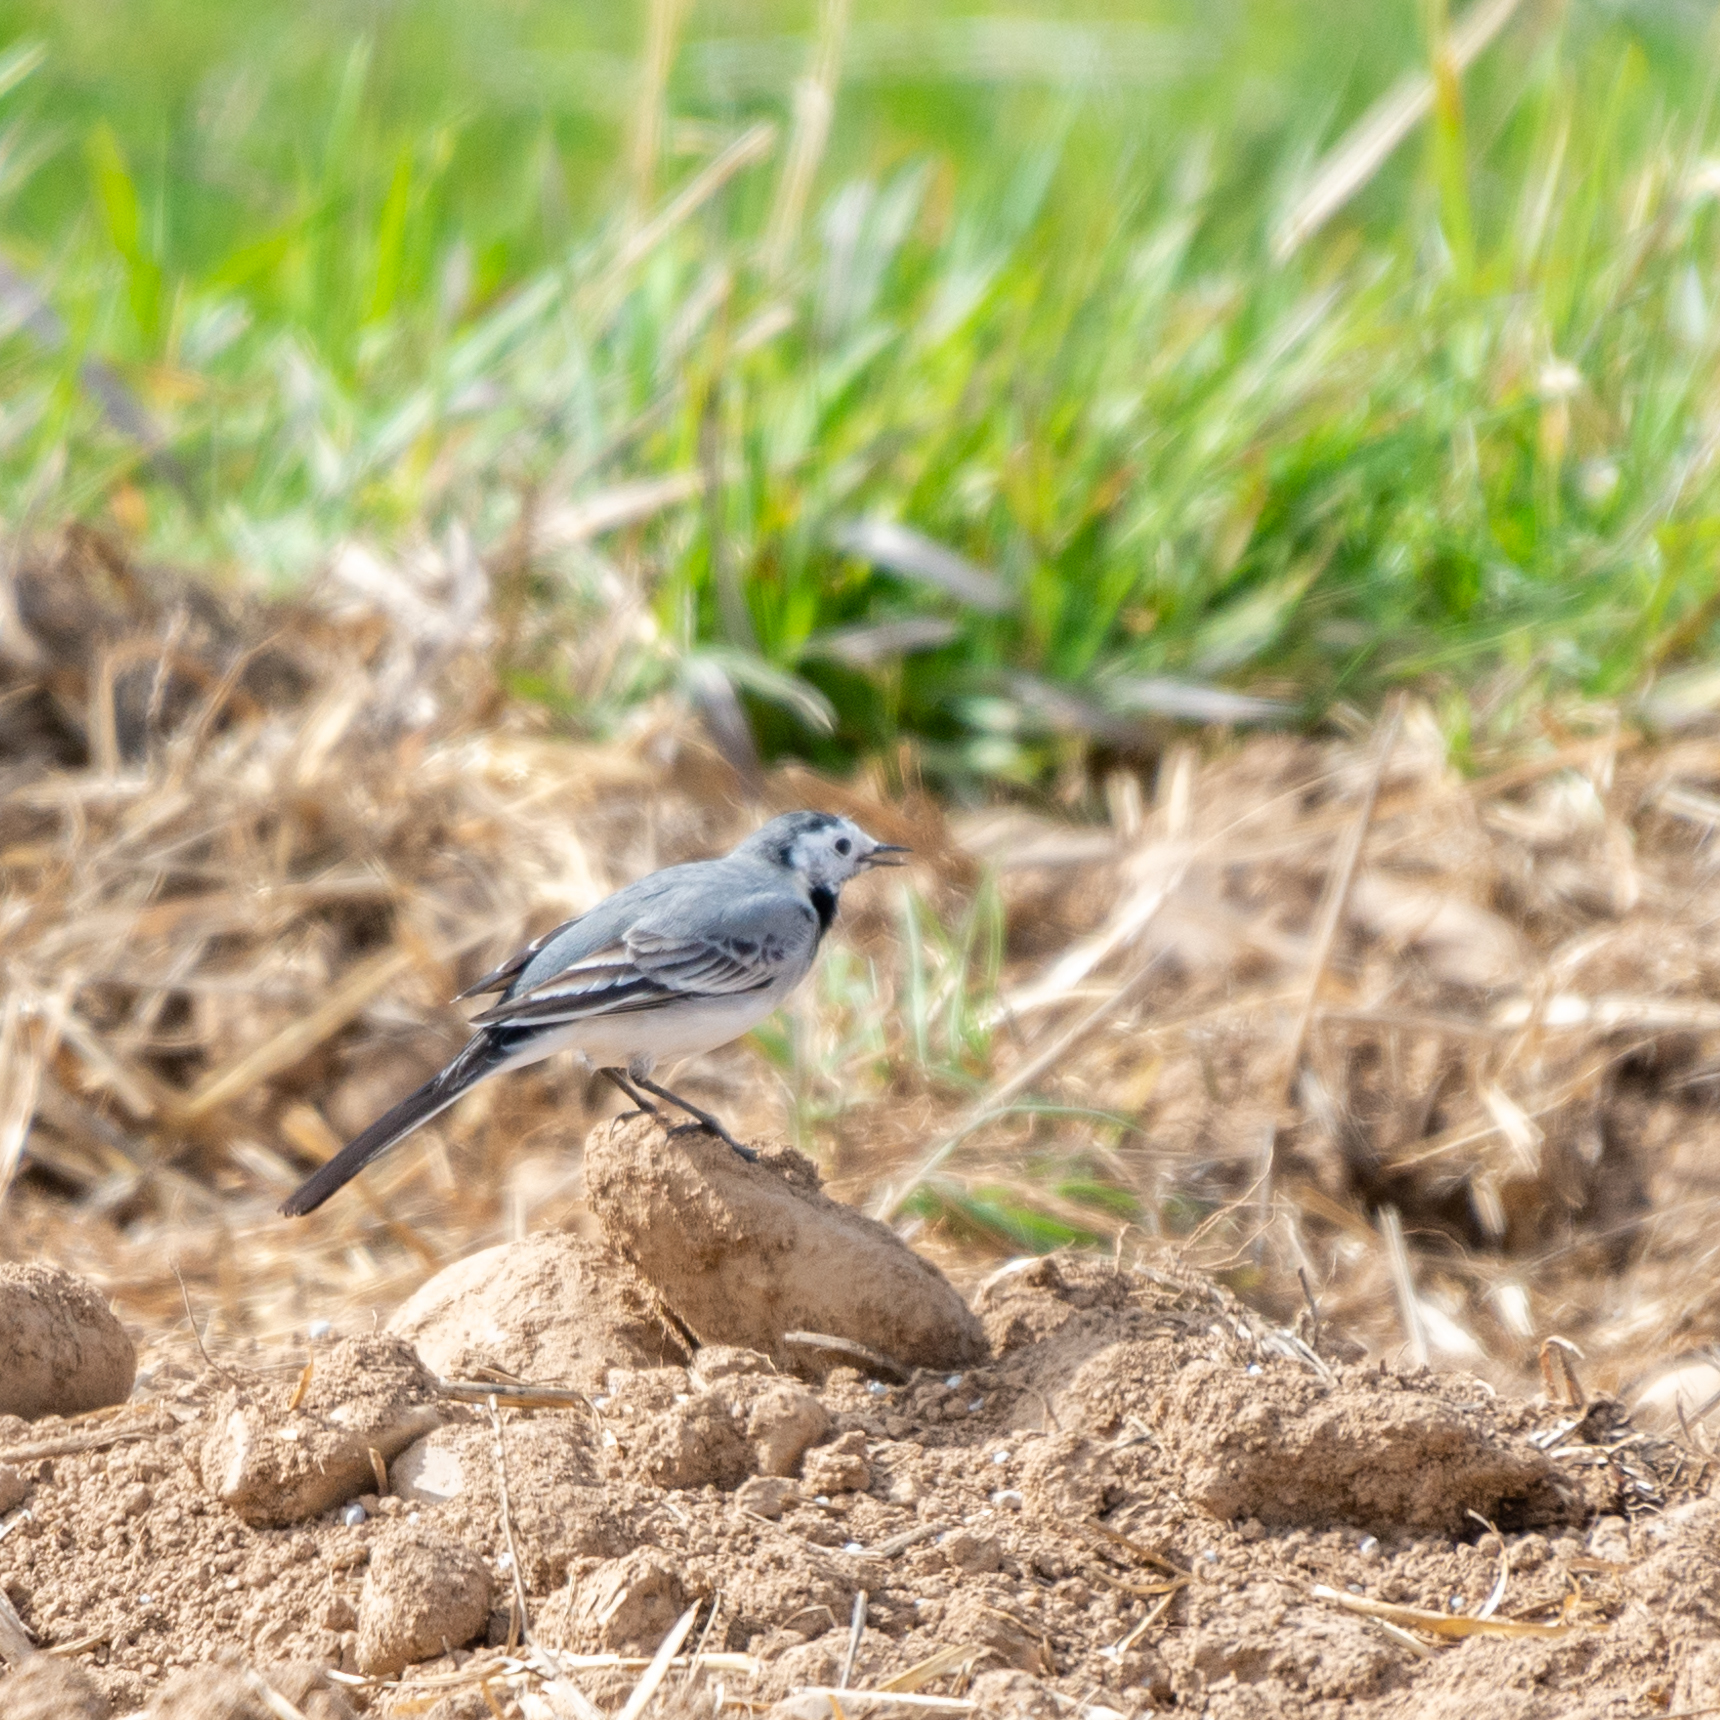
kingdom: Animalia
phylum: Chordata
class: Aves
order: Passeriformes
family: Motacillidae
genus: Motacilla
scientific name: Motacilla alba
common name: White wagtail
